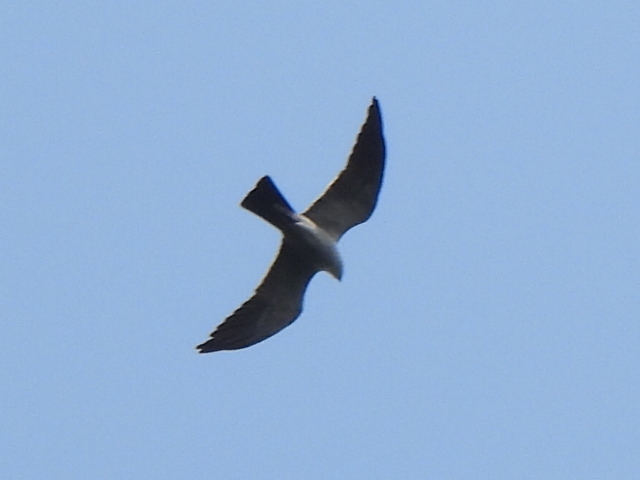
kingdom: Animalia
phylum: Chordata
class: Aves
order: Accipitriformes
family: Accipitridae
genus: Ictinia
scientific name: Ictinia mississippiensis
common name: Mississippi kite
